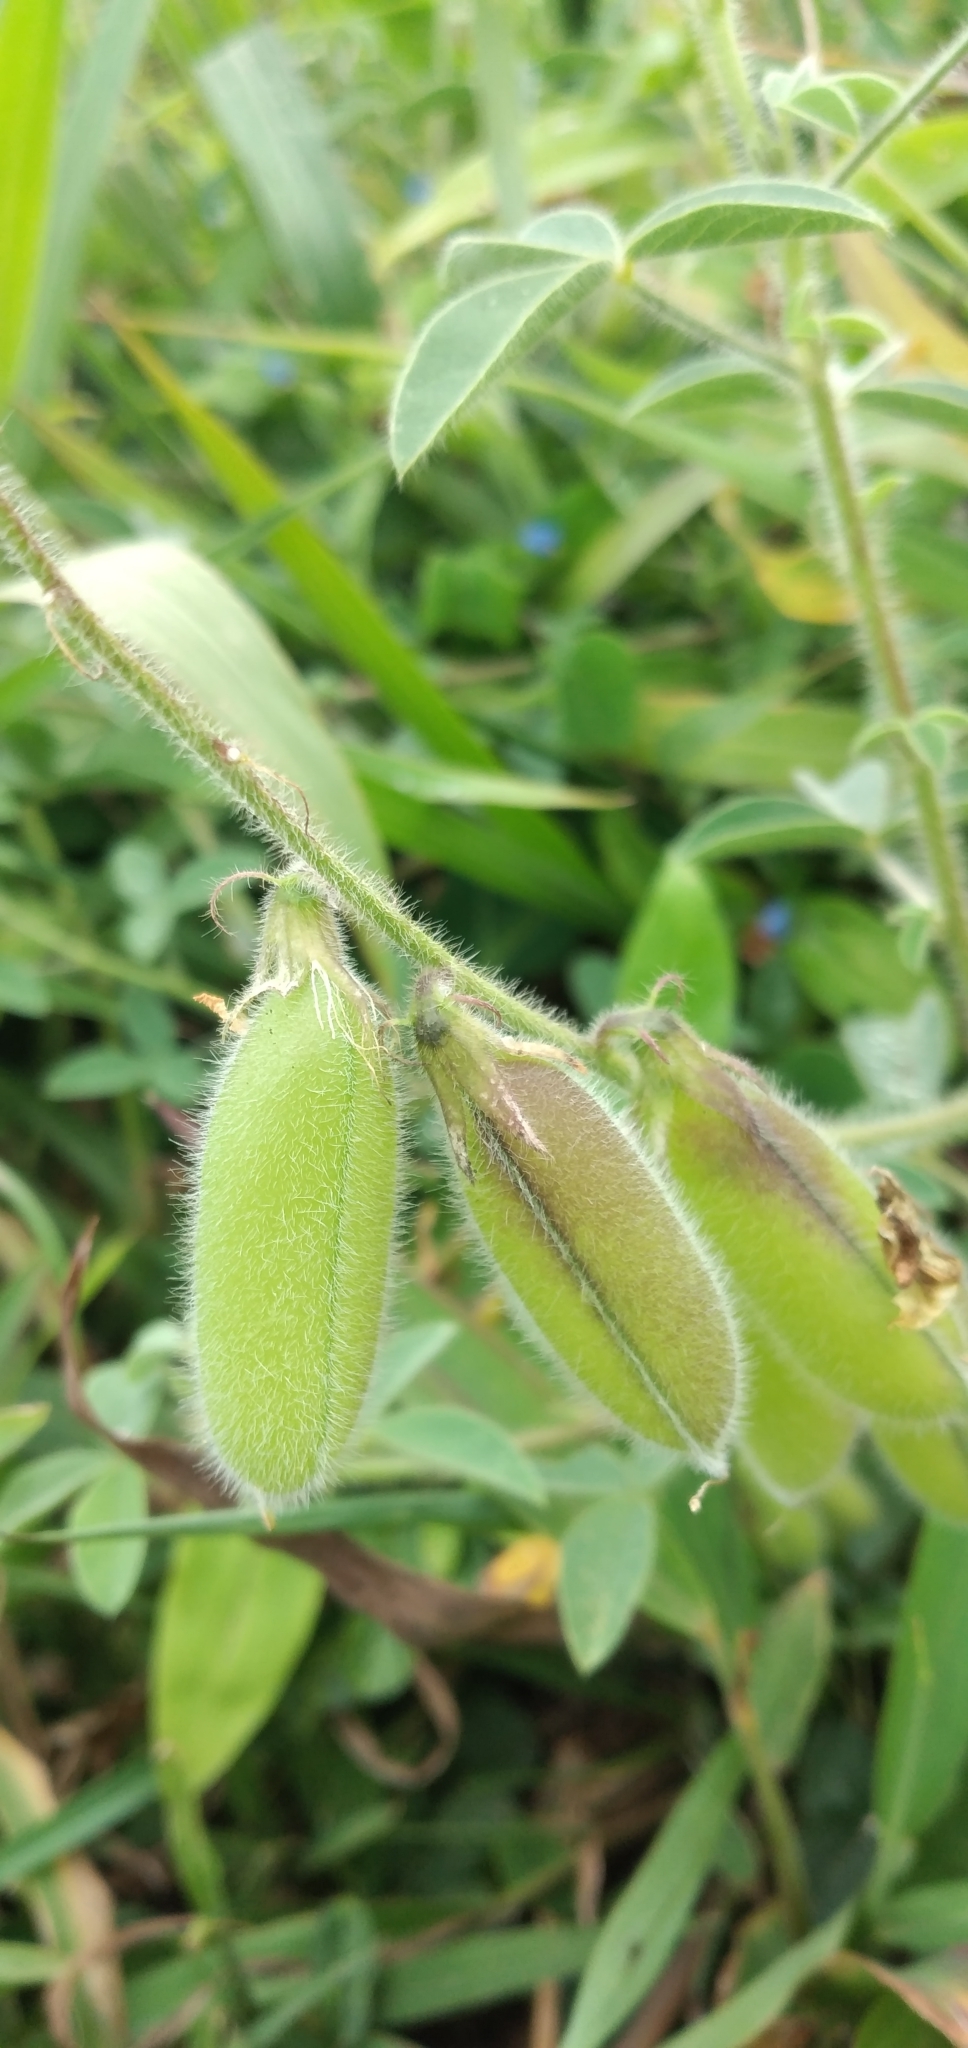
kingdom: Plantae
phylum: Tracheophyta
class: Magnoliopsida
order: Fabales
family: Fabaceae
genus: Crotalaria
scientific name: Crotalaria incana
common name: Shakeshake
